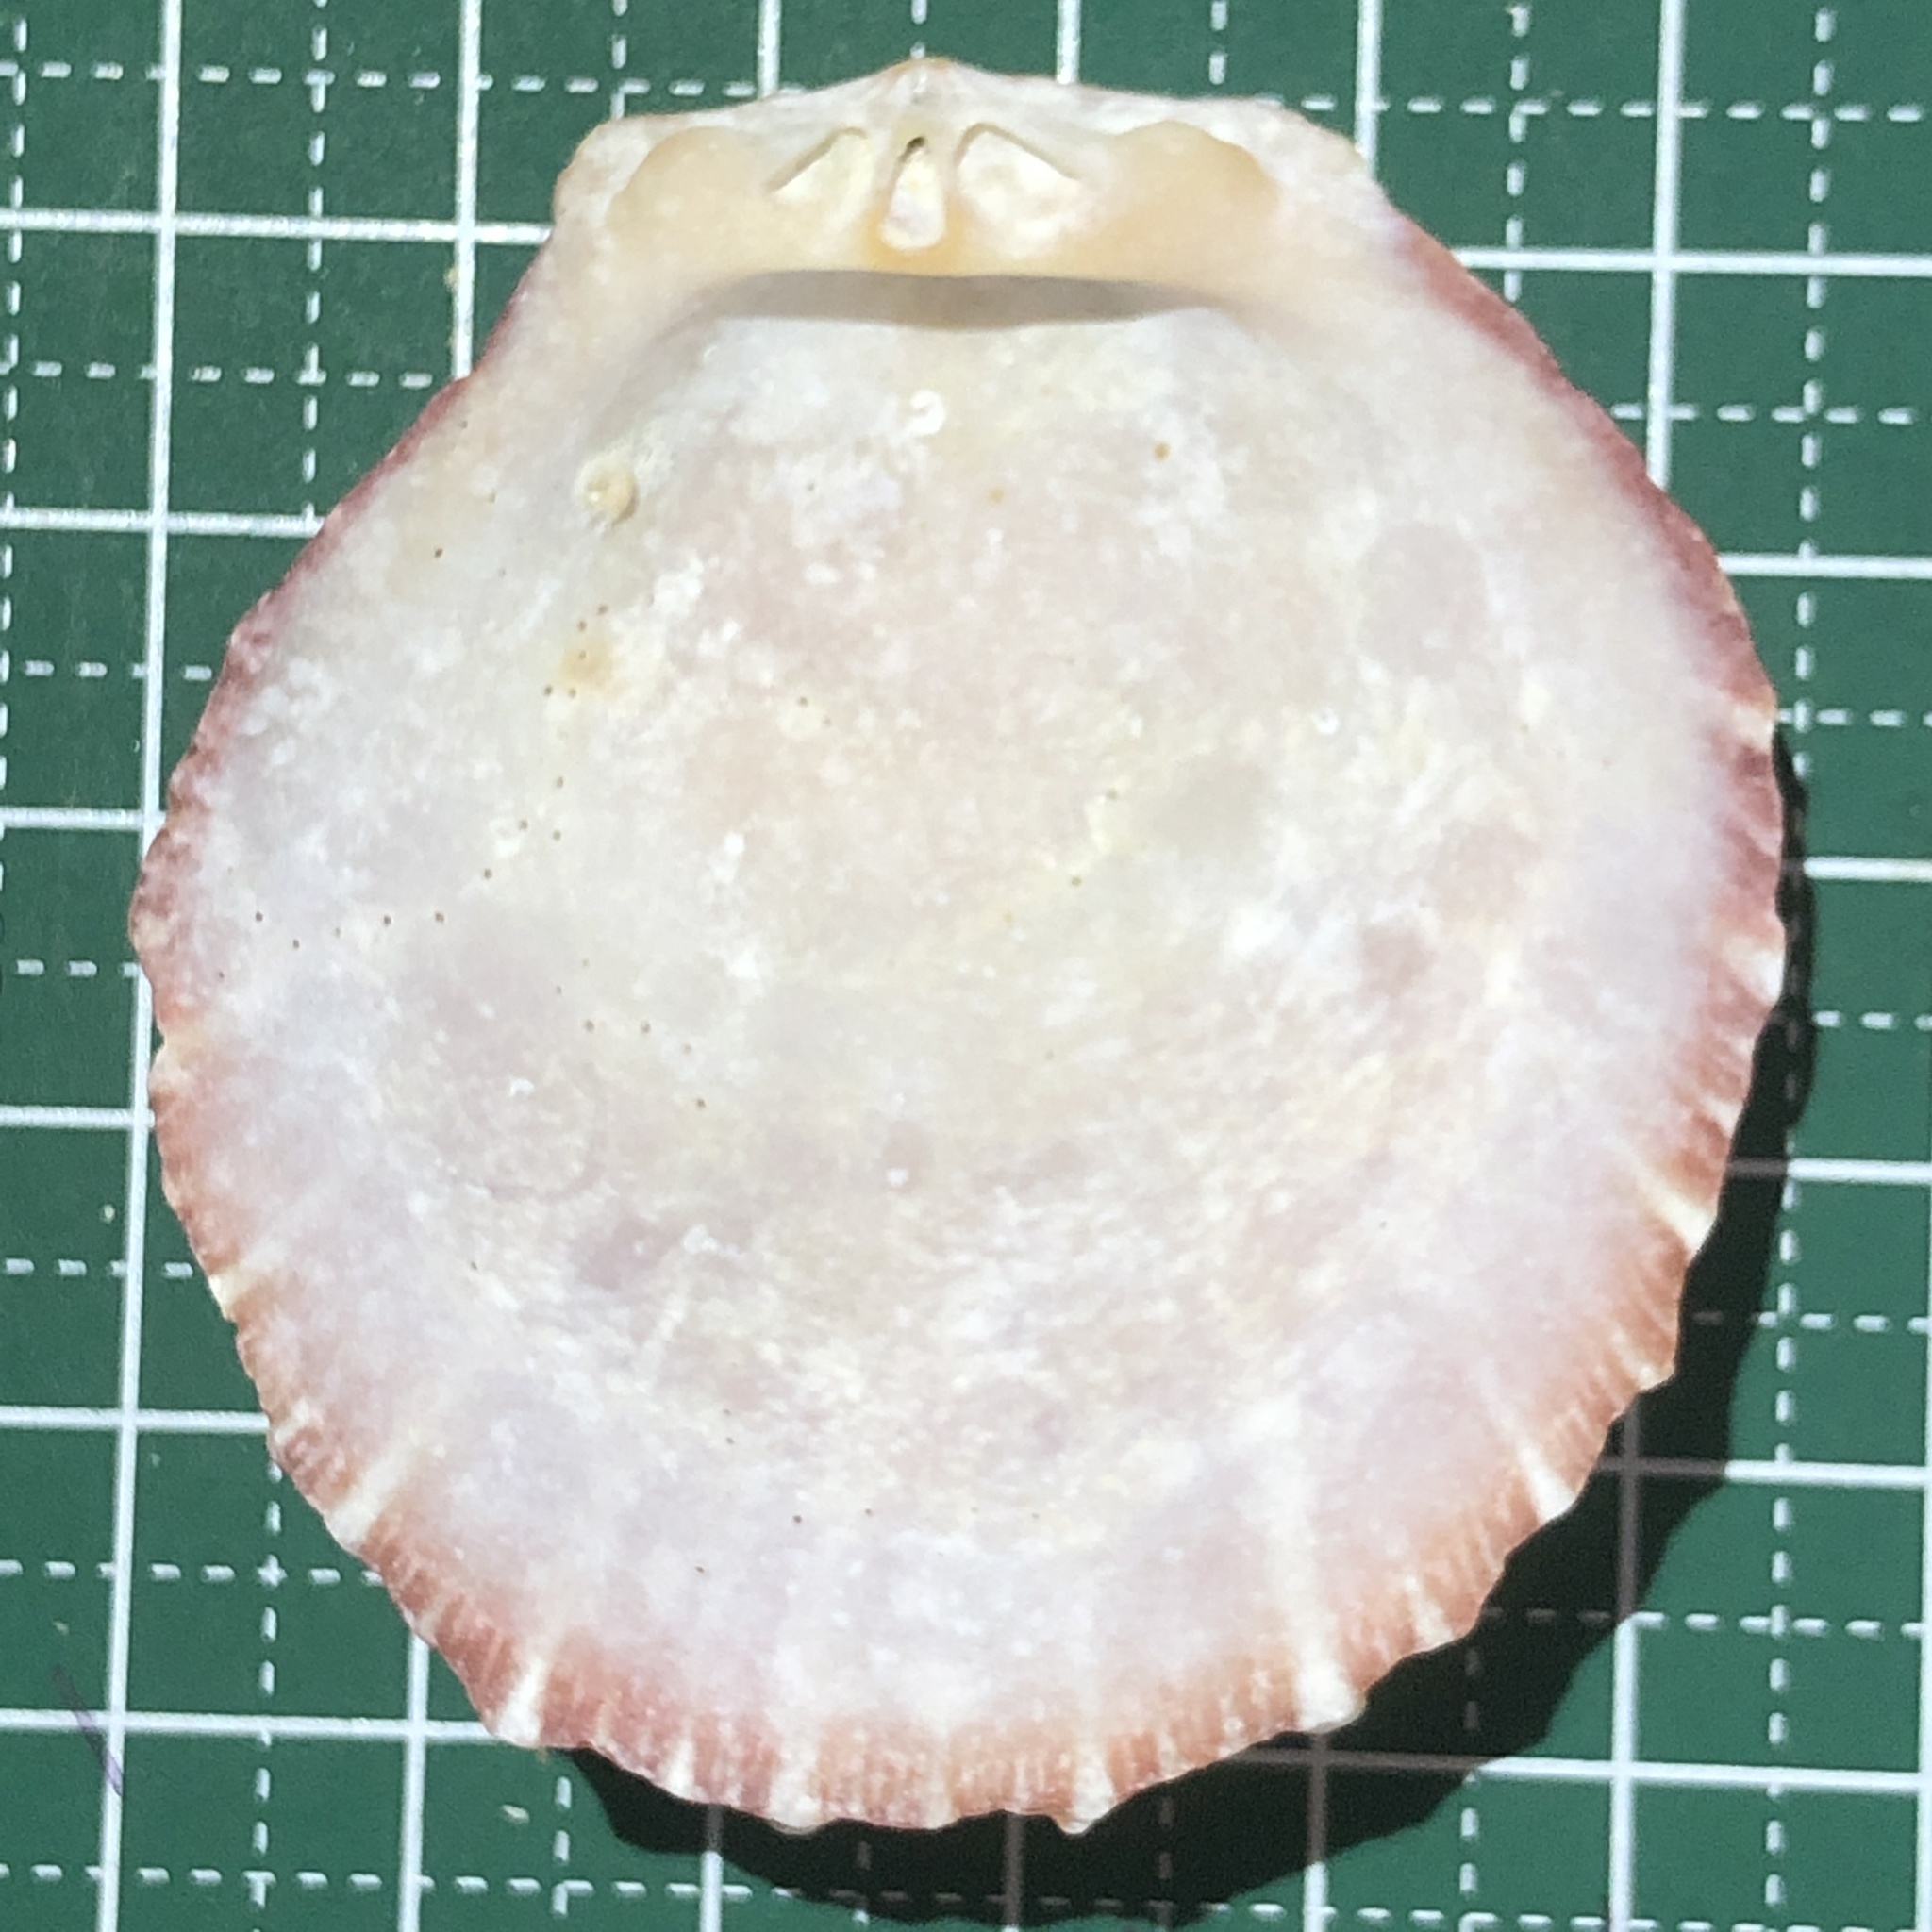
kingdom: Animalia
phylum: Mollusca
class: Bivalvia
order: Pectinida
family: Spondylidae
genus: Spondylus
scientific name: Spondylus squamosus
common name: Scaly thorny oyster
